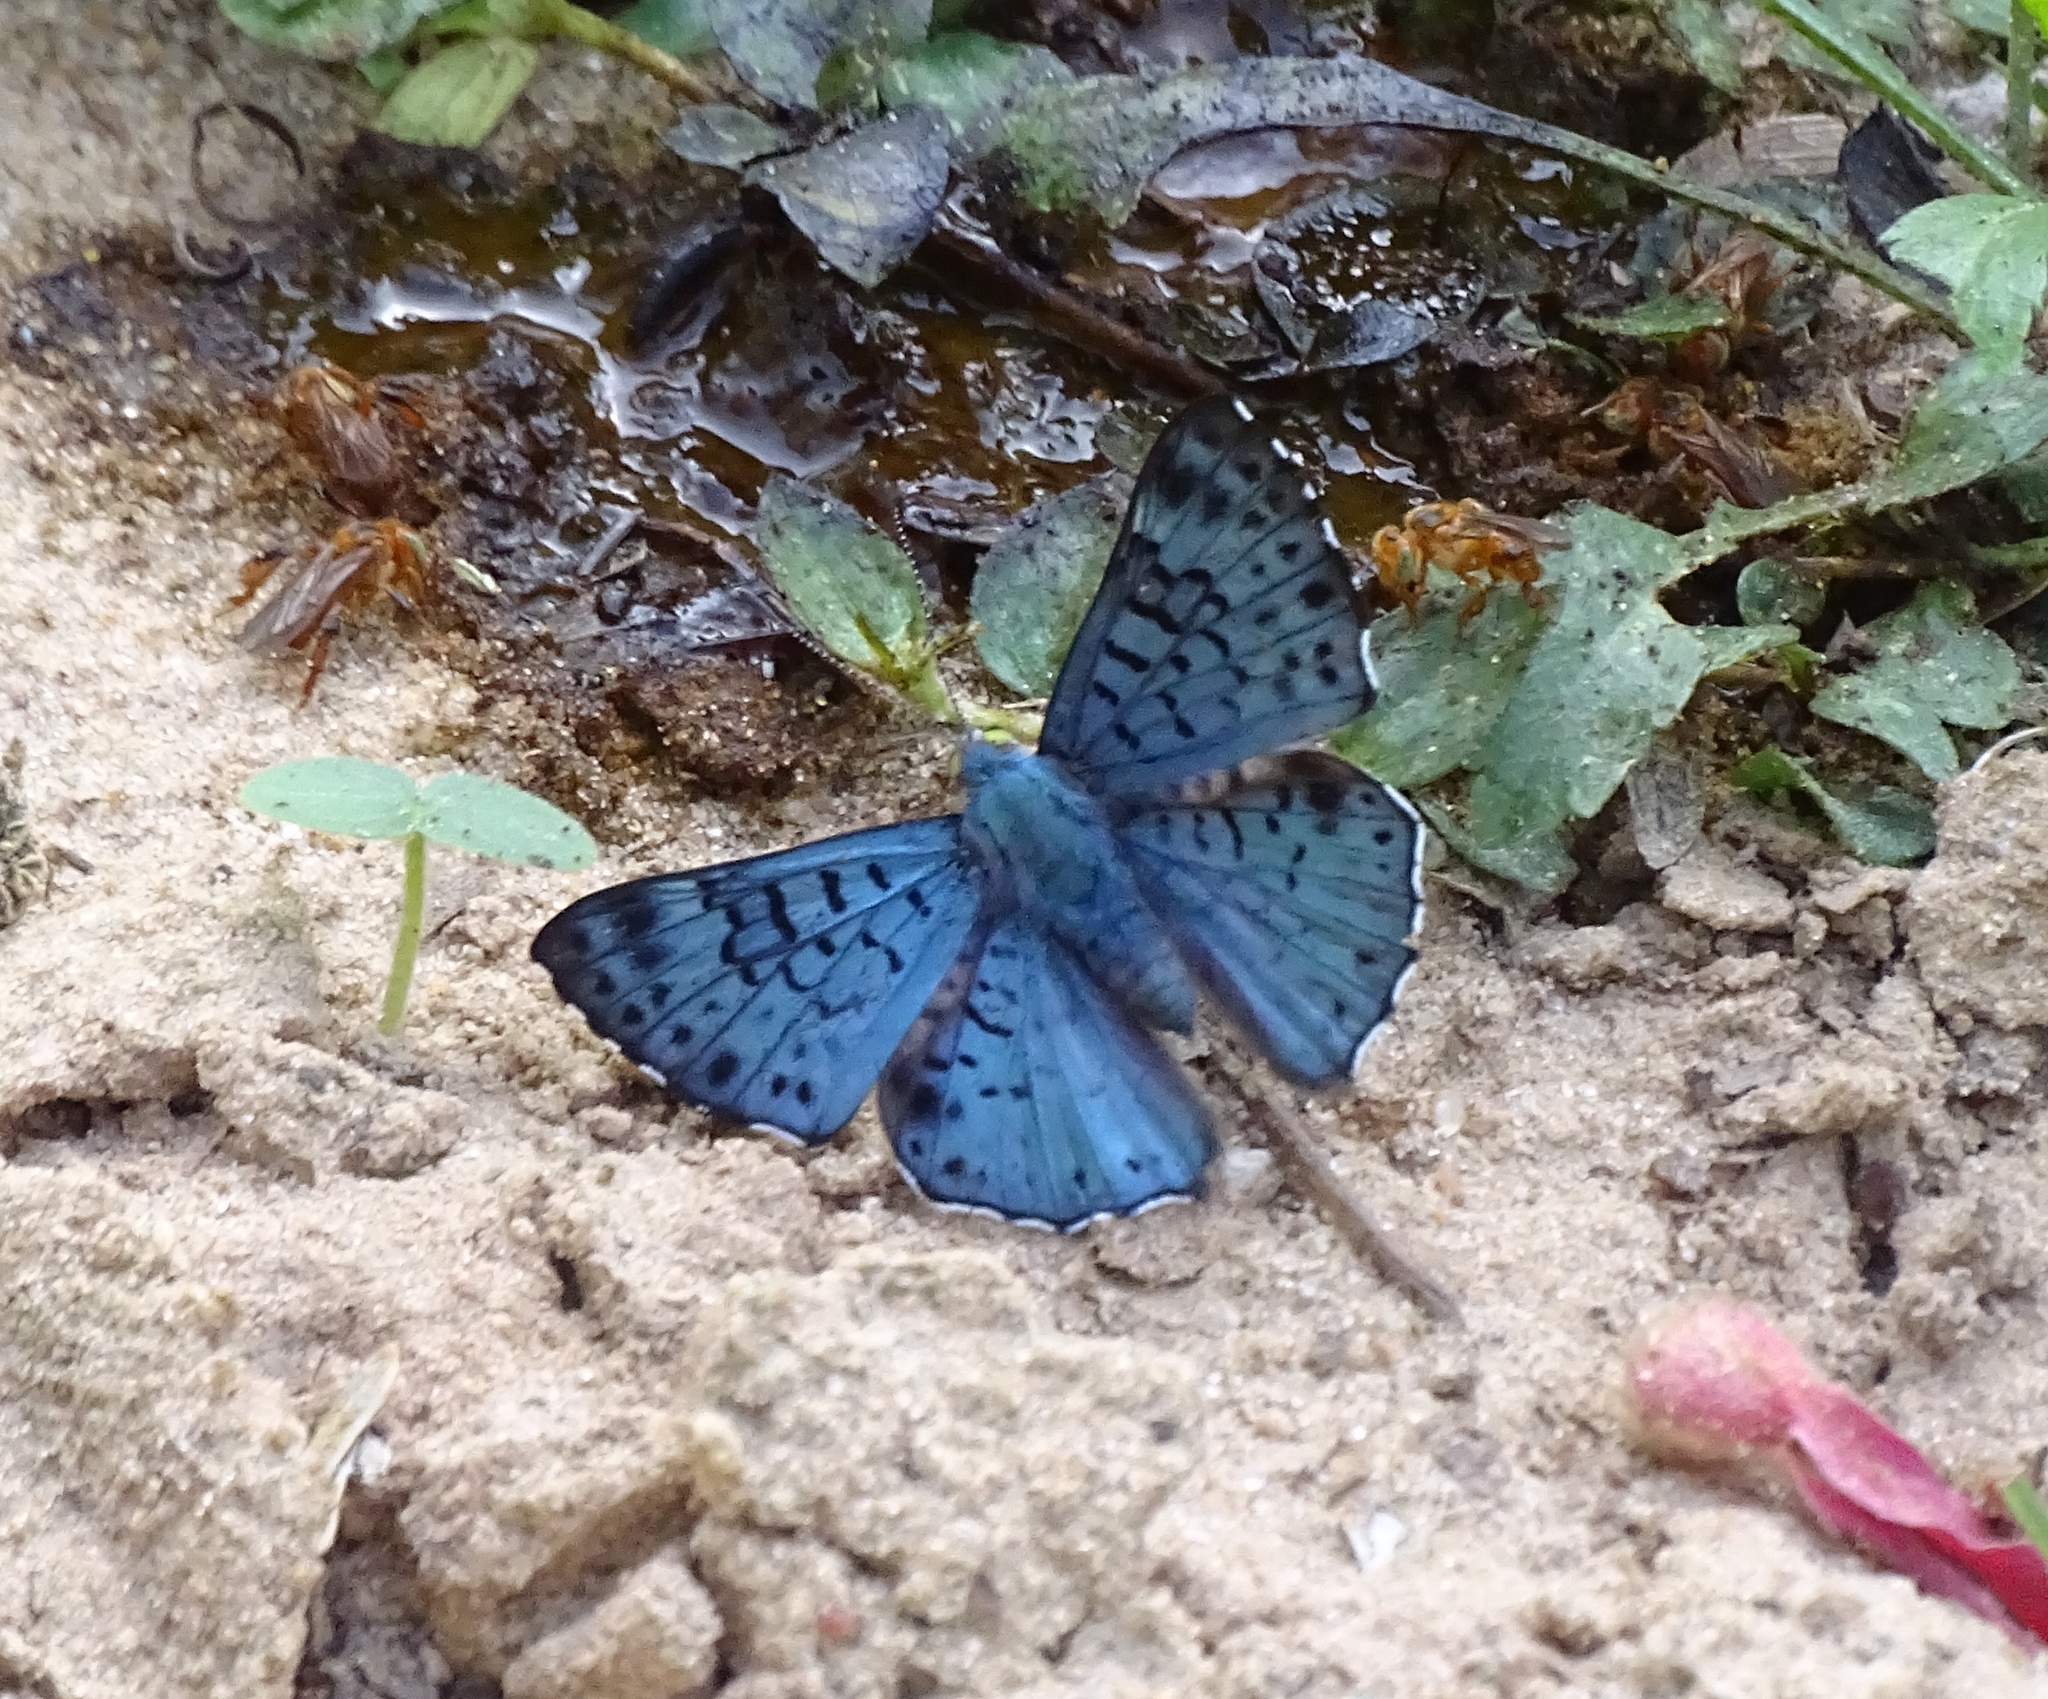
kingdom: Animalia
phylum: Arthropoda
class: Insecta
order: Lepidoptera
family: Riodinidae
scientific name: Riodinidae
